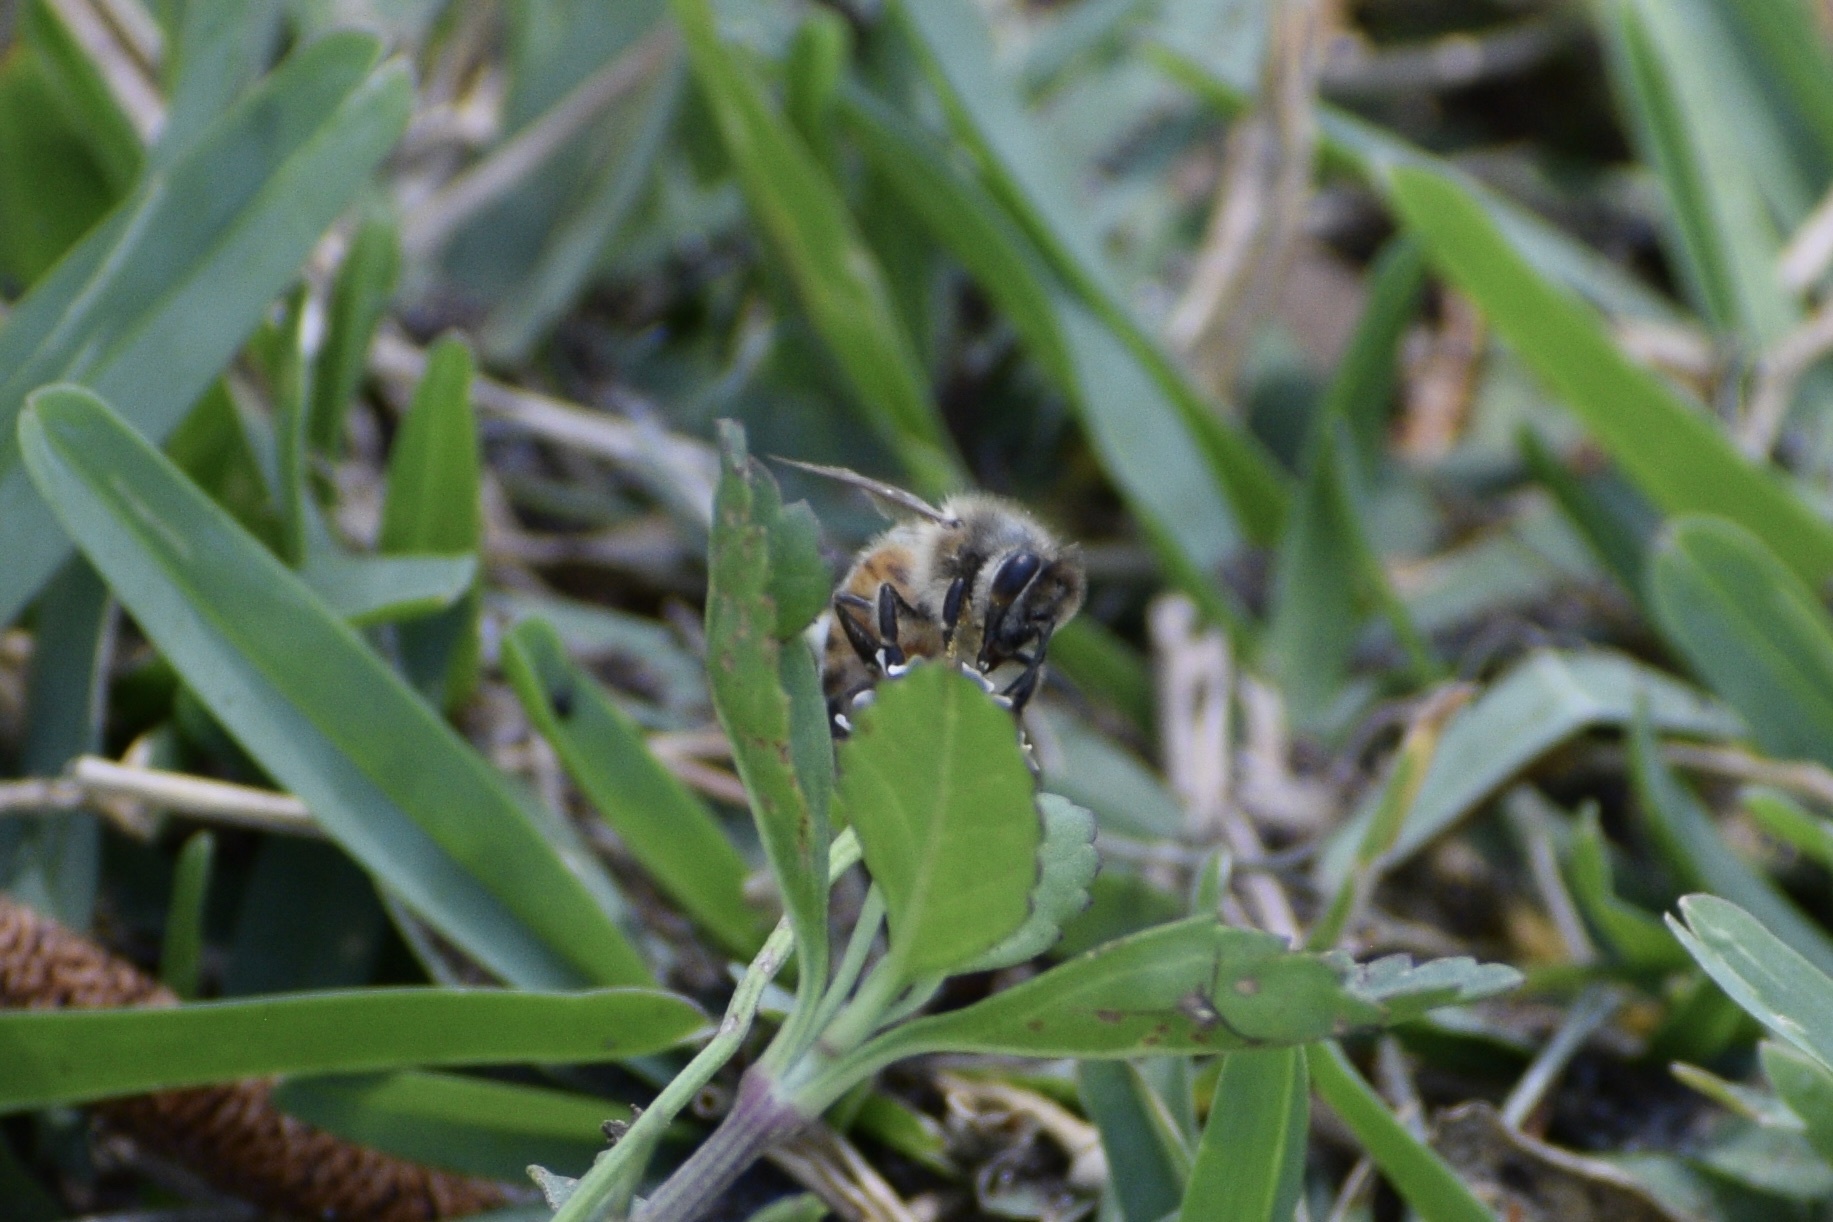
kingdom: Animalia
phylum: Arthropoda
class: Insecta
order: Hymenoptera
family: Apidae
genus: Apis
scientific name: Apis mellifera
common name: Honey bee
